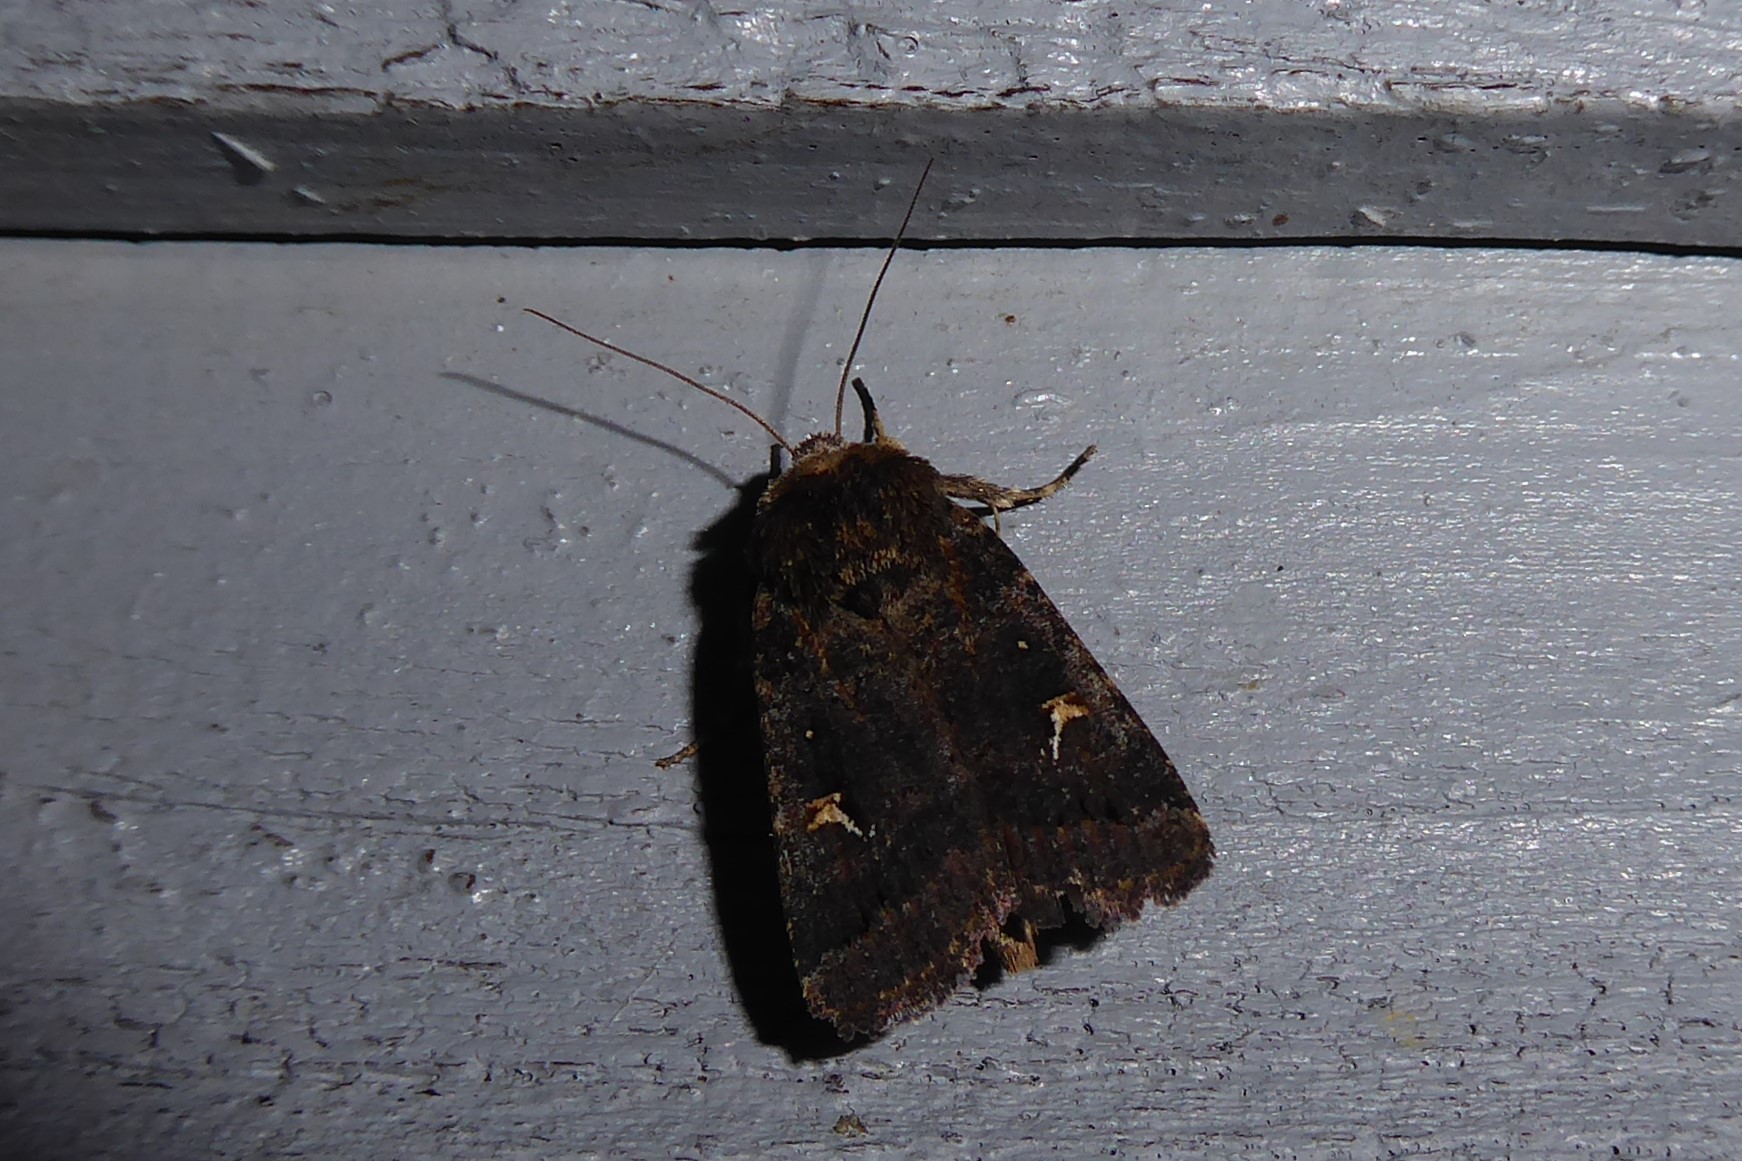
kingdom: Animalia
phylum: Arthropoda
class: Insecta
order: Lepidoptera
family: Noctuidae
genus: Proteuxoa
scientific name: Proteuxoa tetronycha
